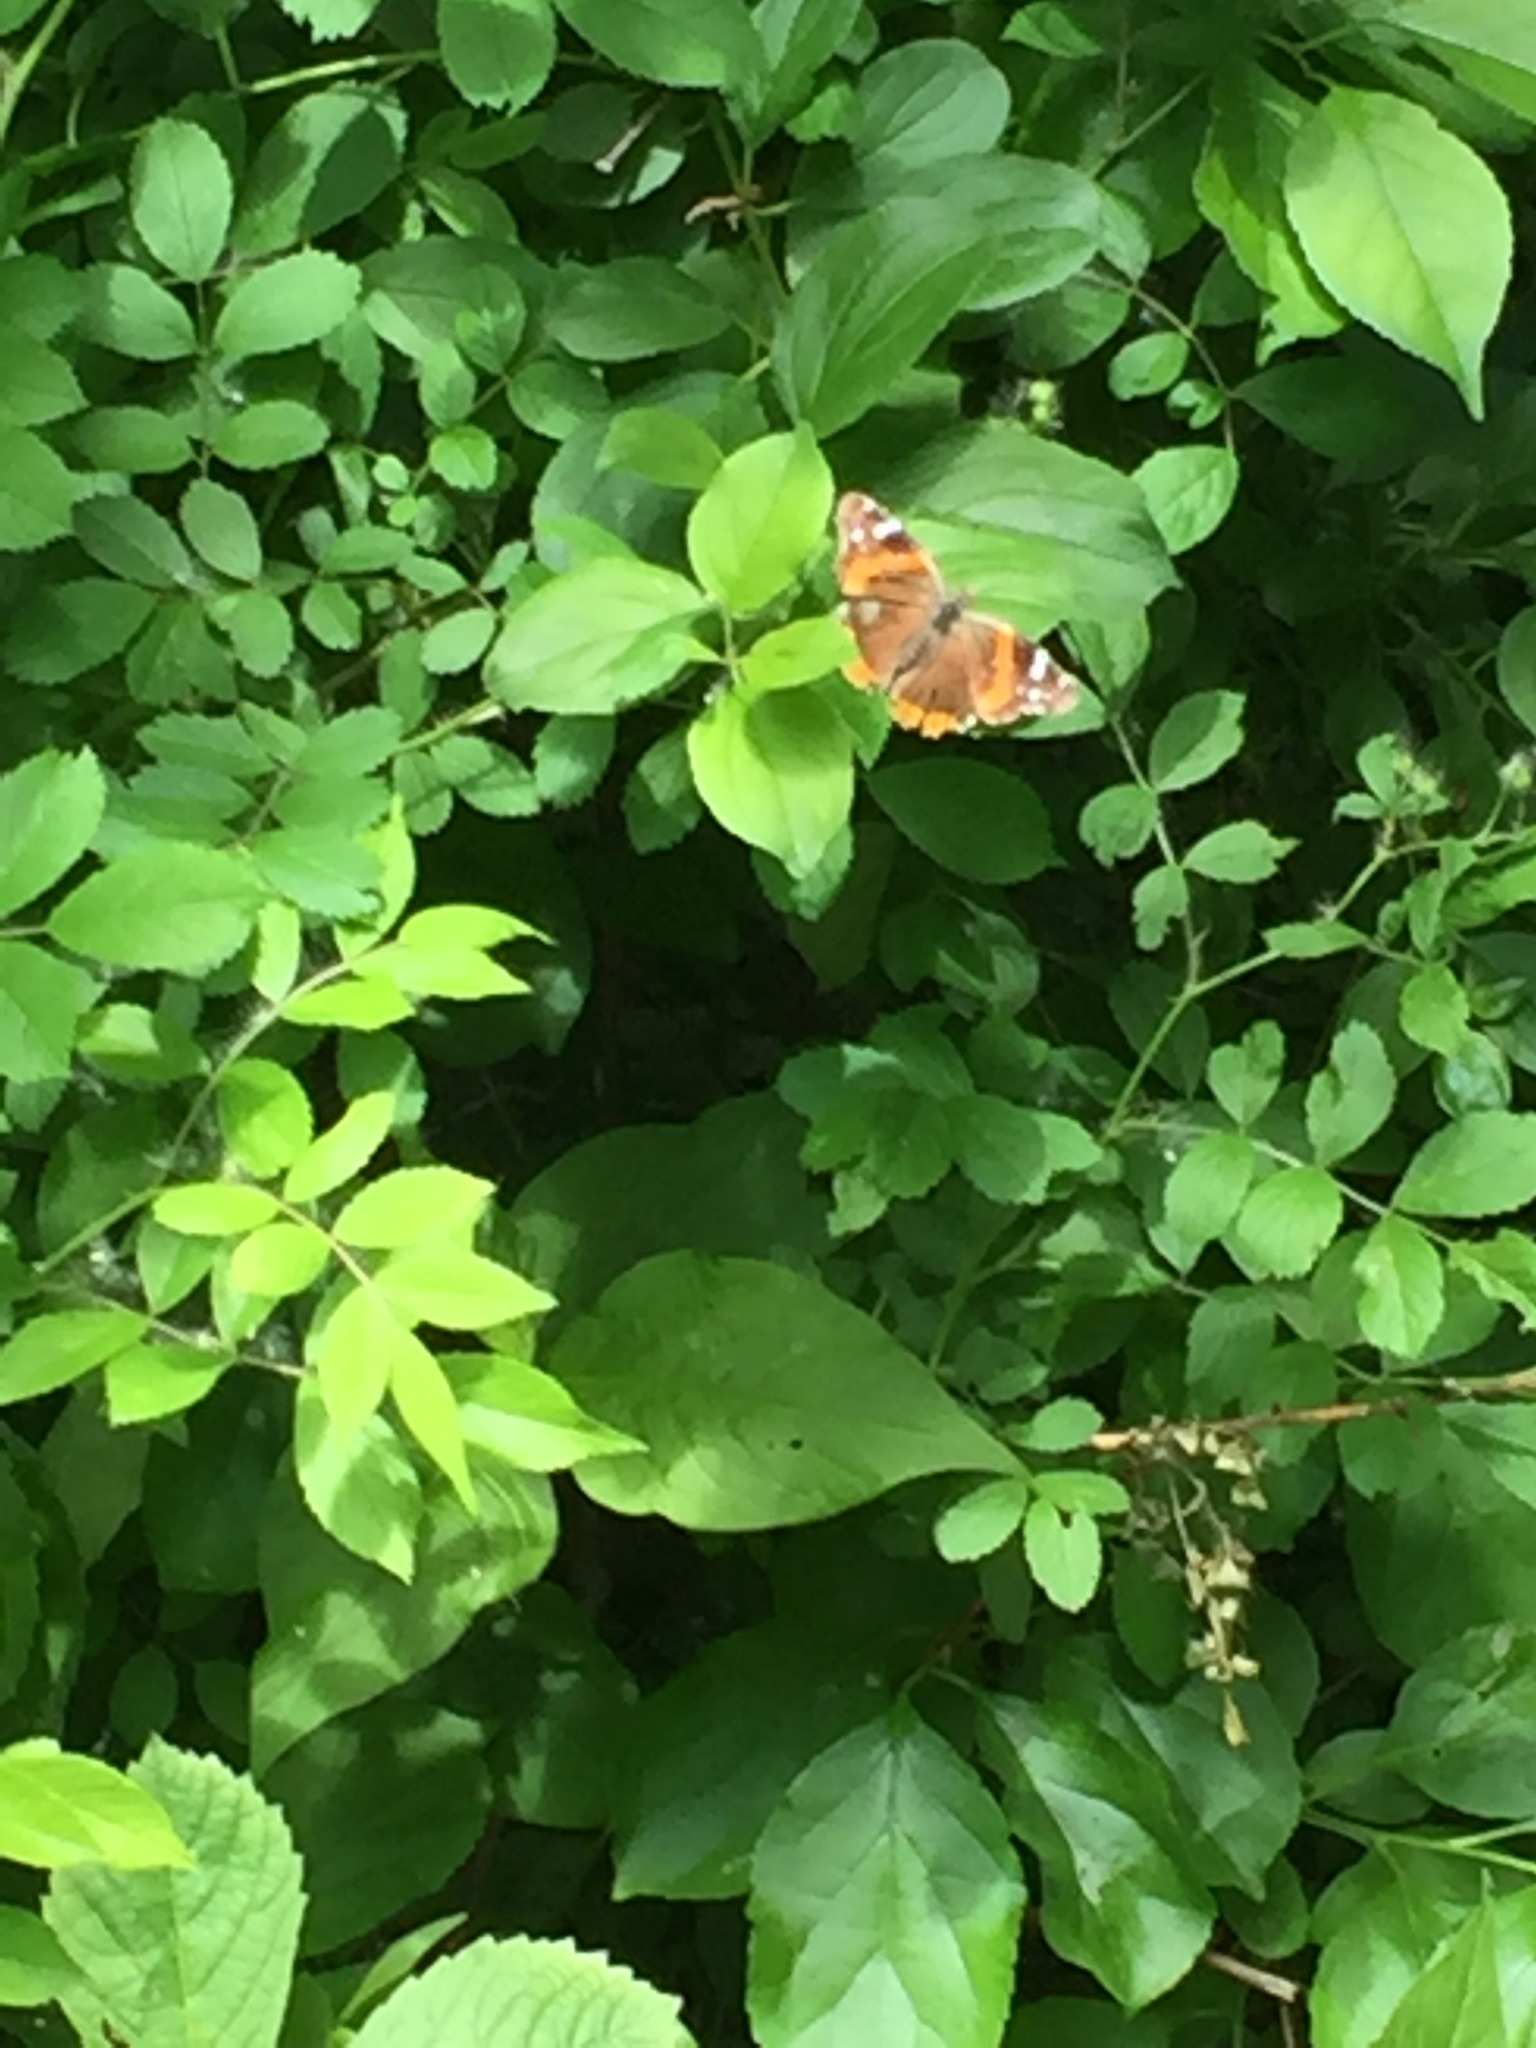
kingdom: Animalia
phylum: Arthropoda
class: Insecta
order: Lepidoptera
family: Nymphalidae
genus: Vanessa
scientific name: Vanessa atalanta
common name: Red admiral
